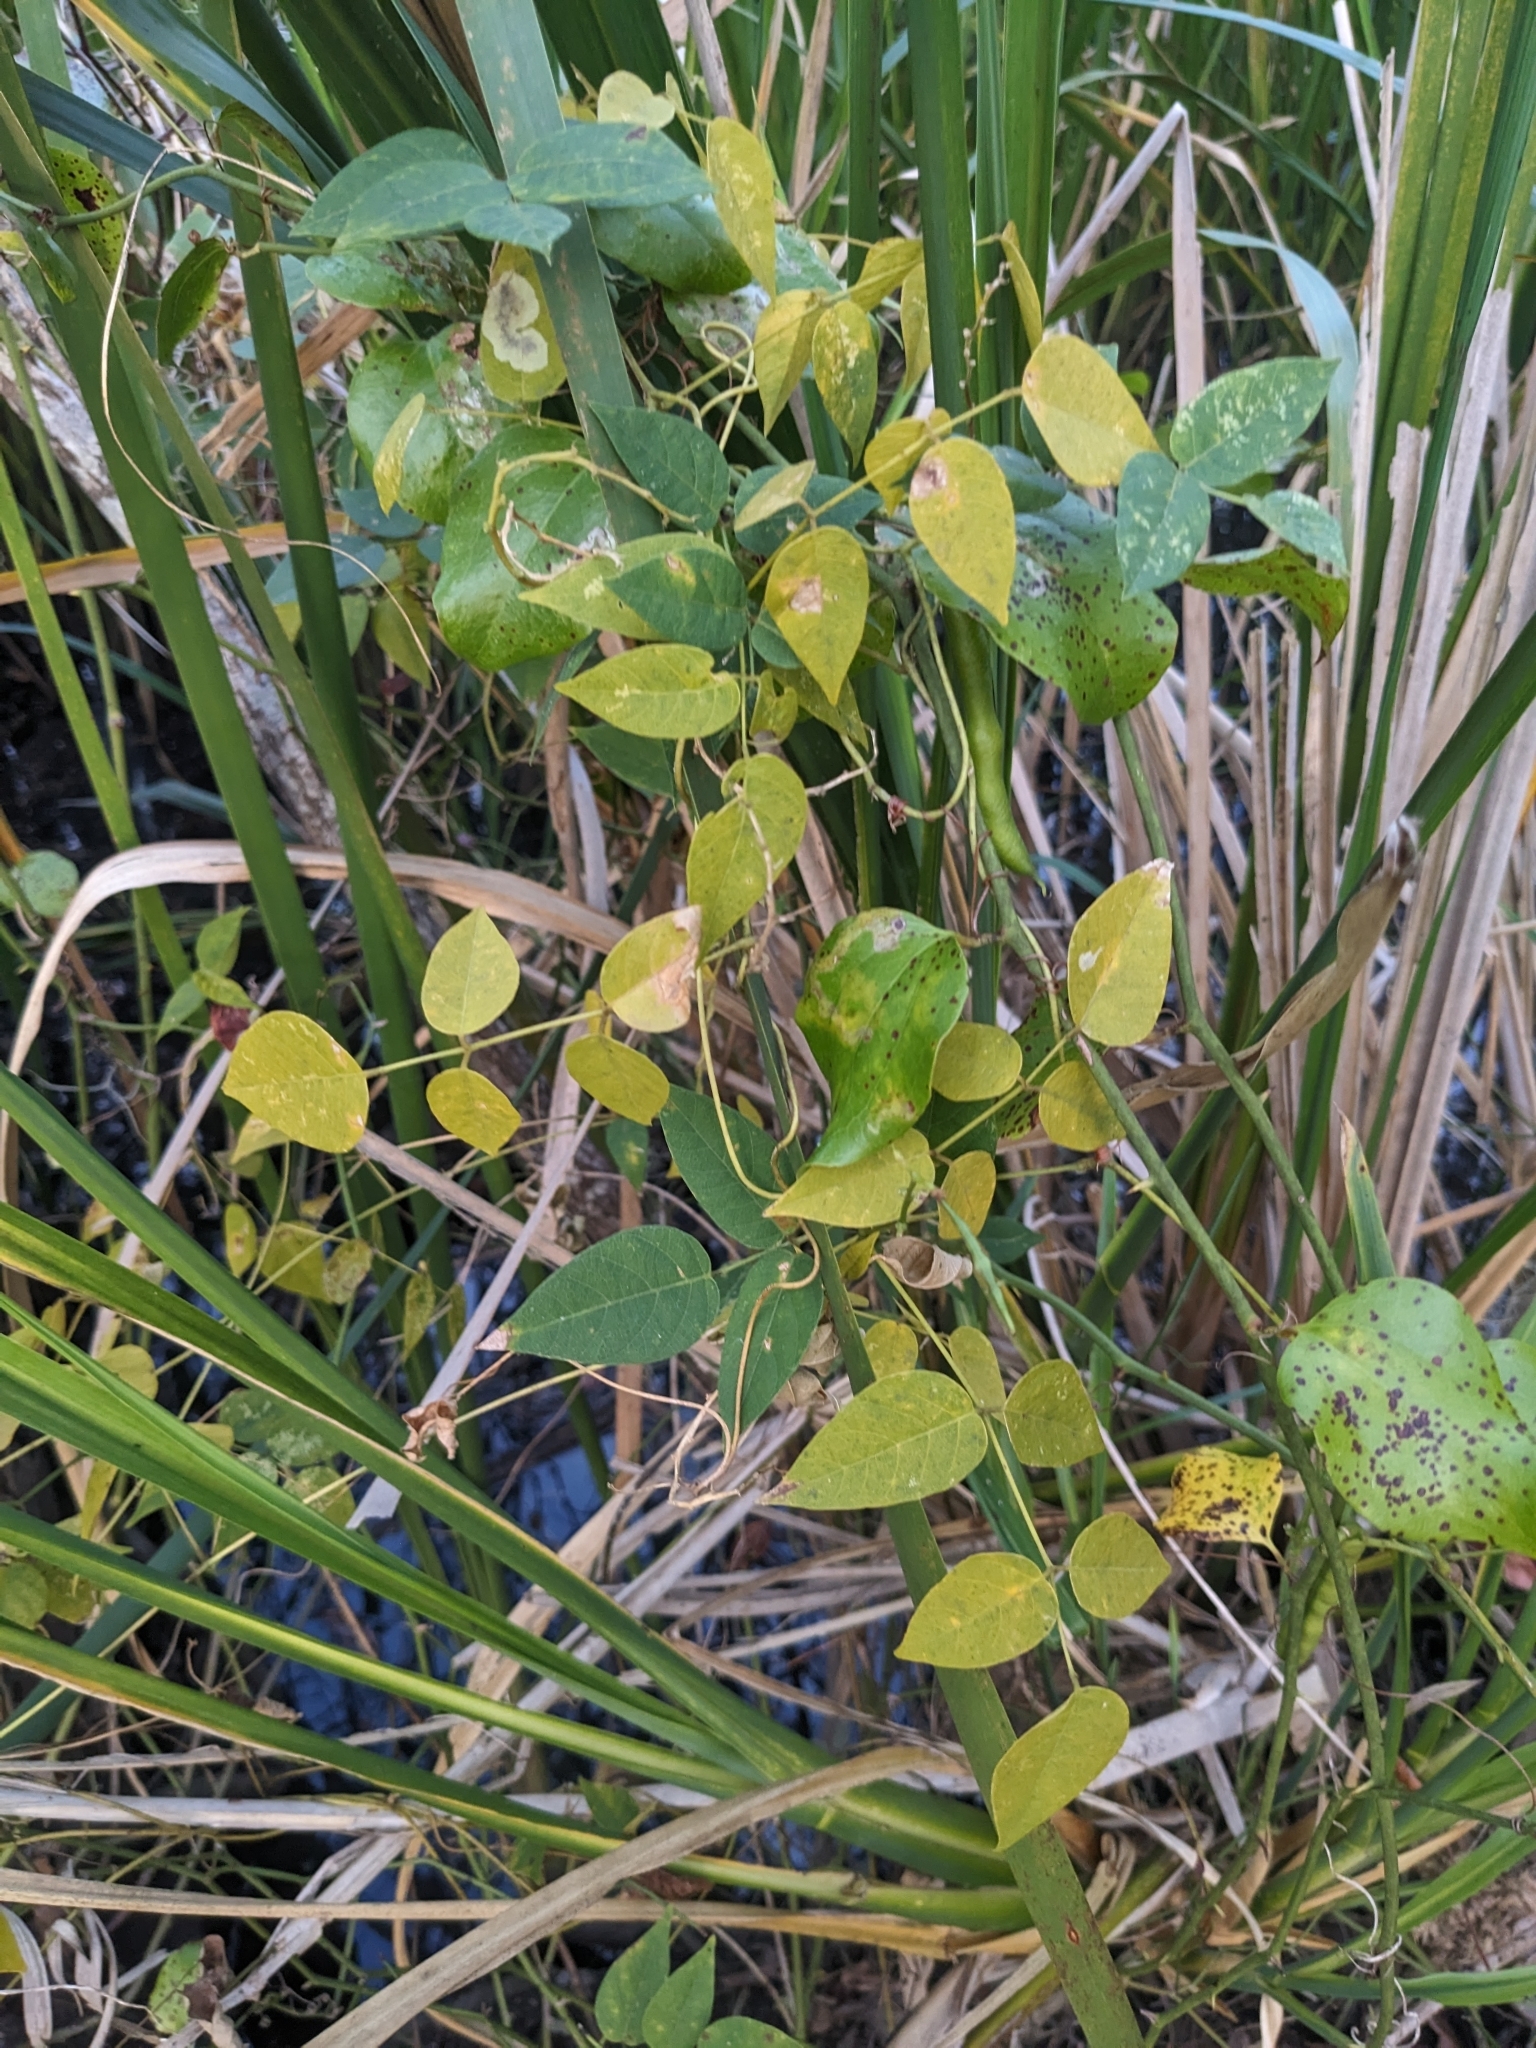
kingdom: Plantae
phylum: Tracheophyta
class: Magnoliopsida
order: Fabales
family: Fabaceae
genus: Apios
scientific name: Apios americana
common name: American potato-bean
